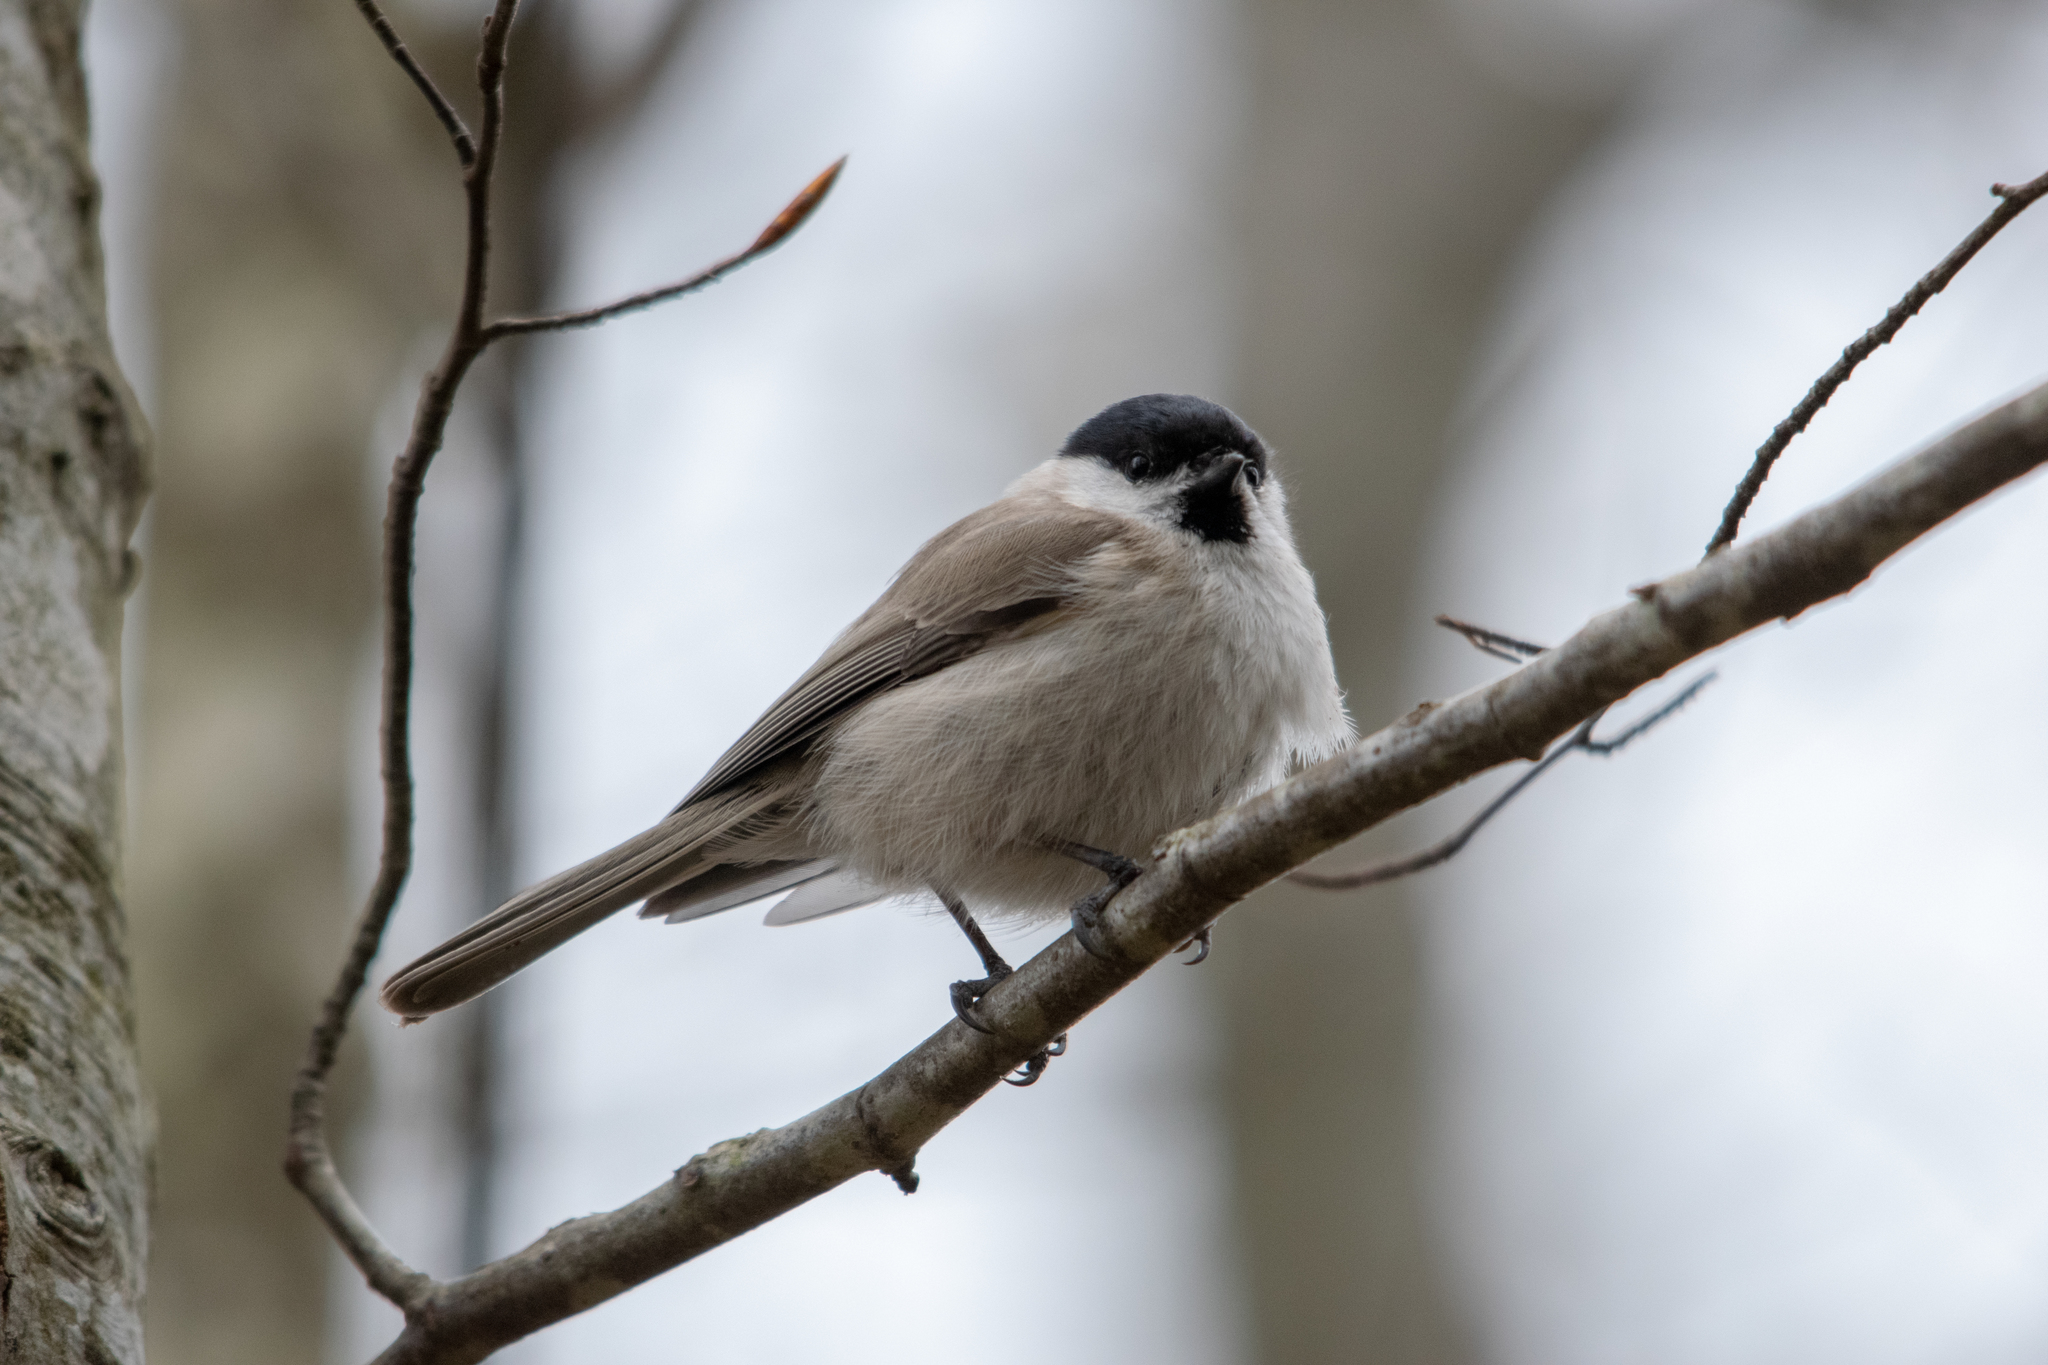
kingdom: Animalia
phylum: Chordata
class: Aves
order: Passeriformes
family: Paridae
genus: Poecile
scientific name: Poecile palustris
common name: Marsh tit
